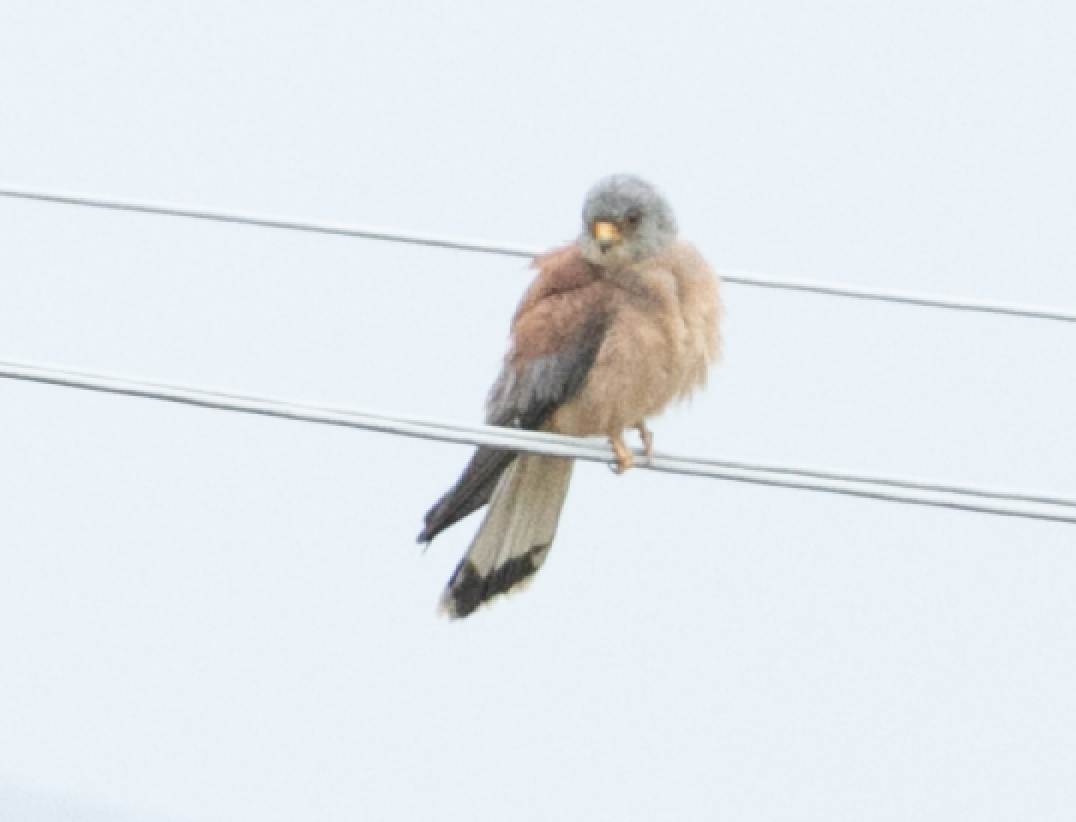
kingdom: Animalia
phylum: Chordata
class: Aves
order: Falconiformes
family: Falconidae
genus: Falco
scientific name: Falco naumanni
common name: Lesser kestrel
